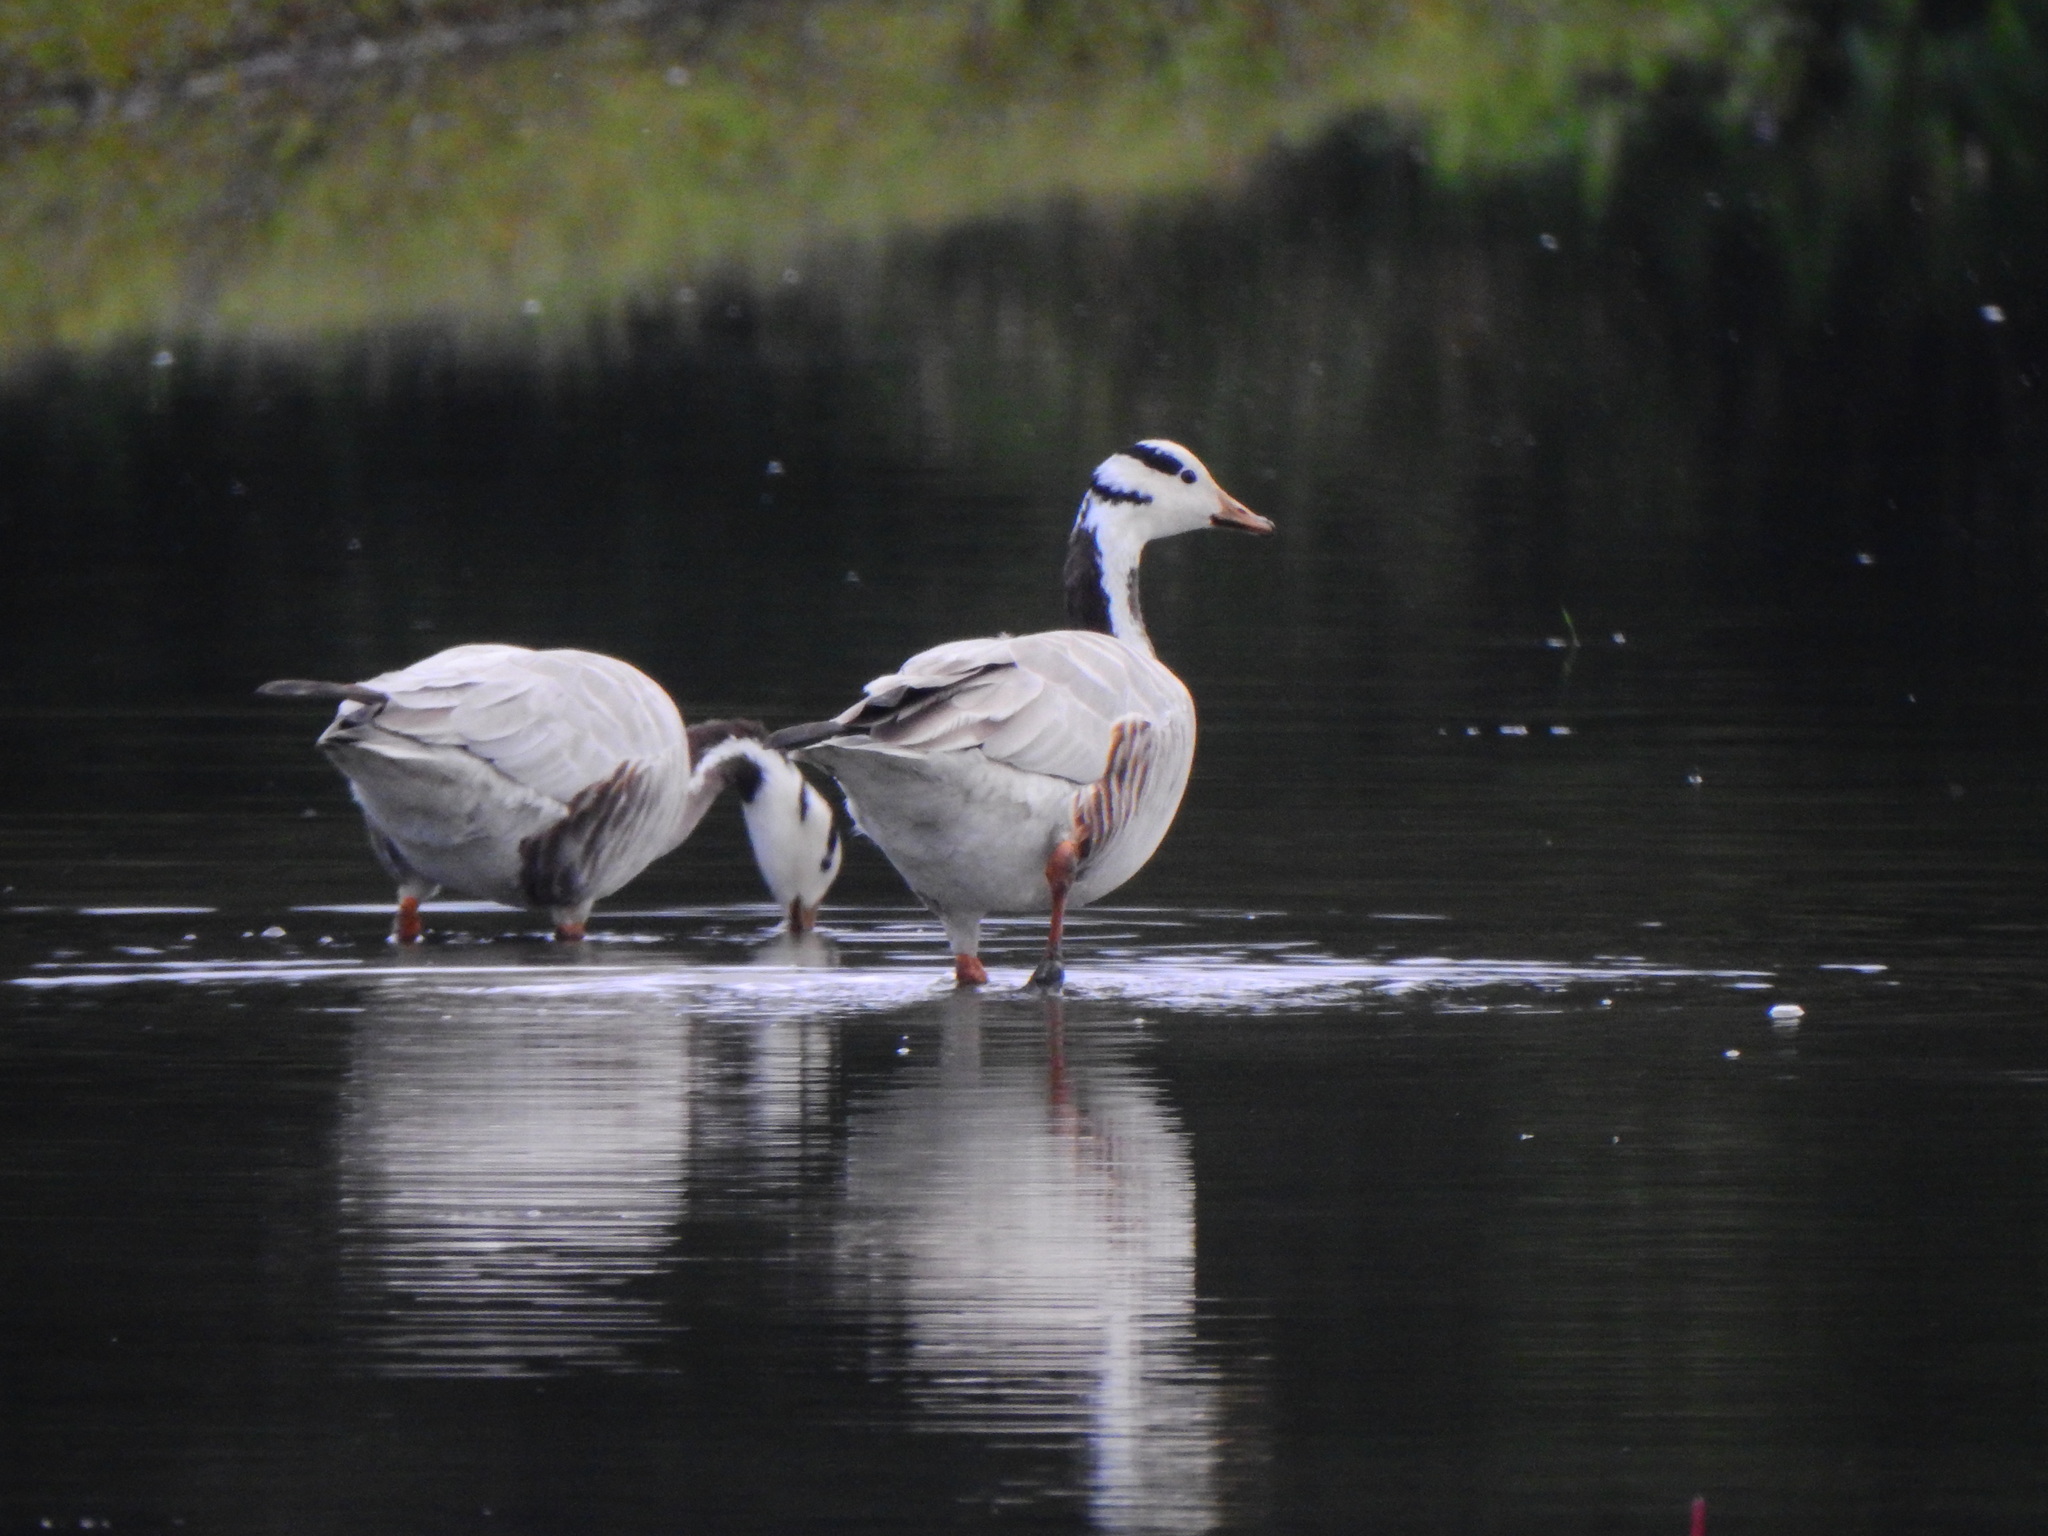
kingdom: Animalia
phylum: Chordata
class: Aves
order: Anseriformes
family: Anatidae
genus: Anser
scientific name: Anser indicus
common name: Bar-headed goose
